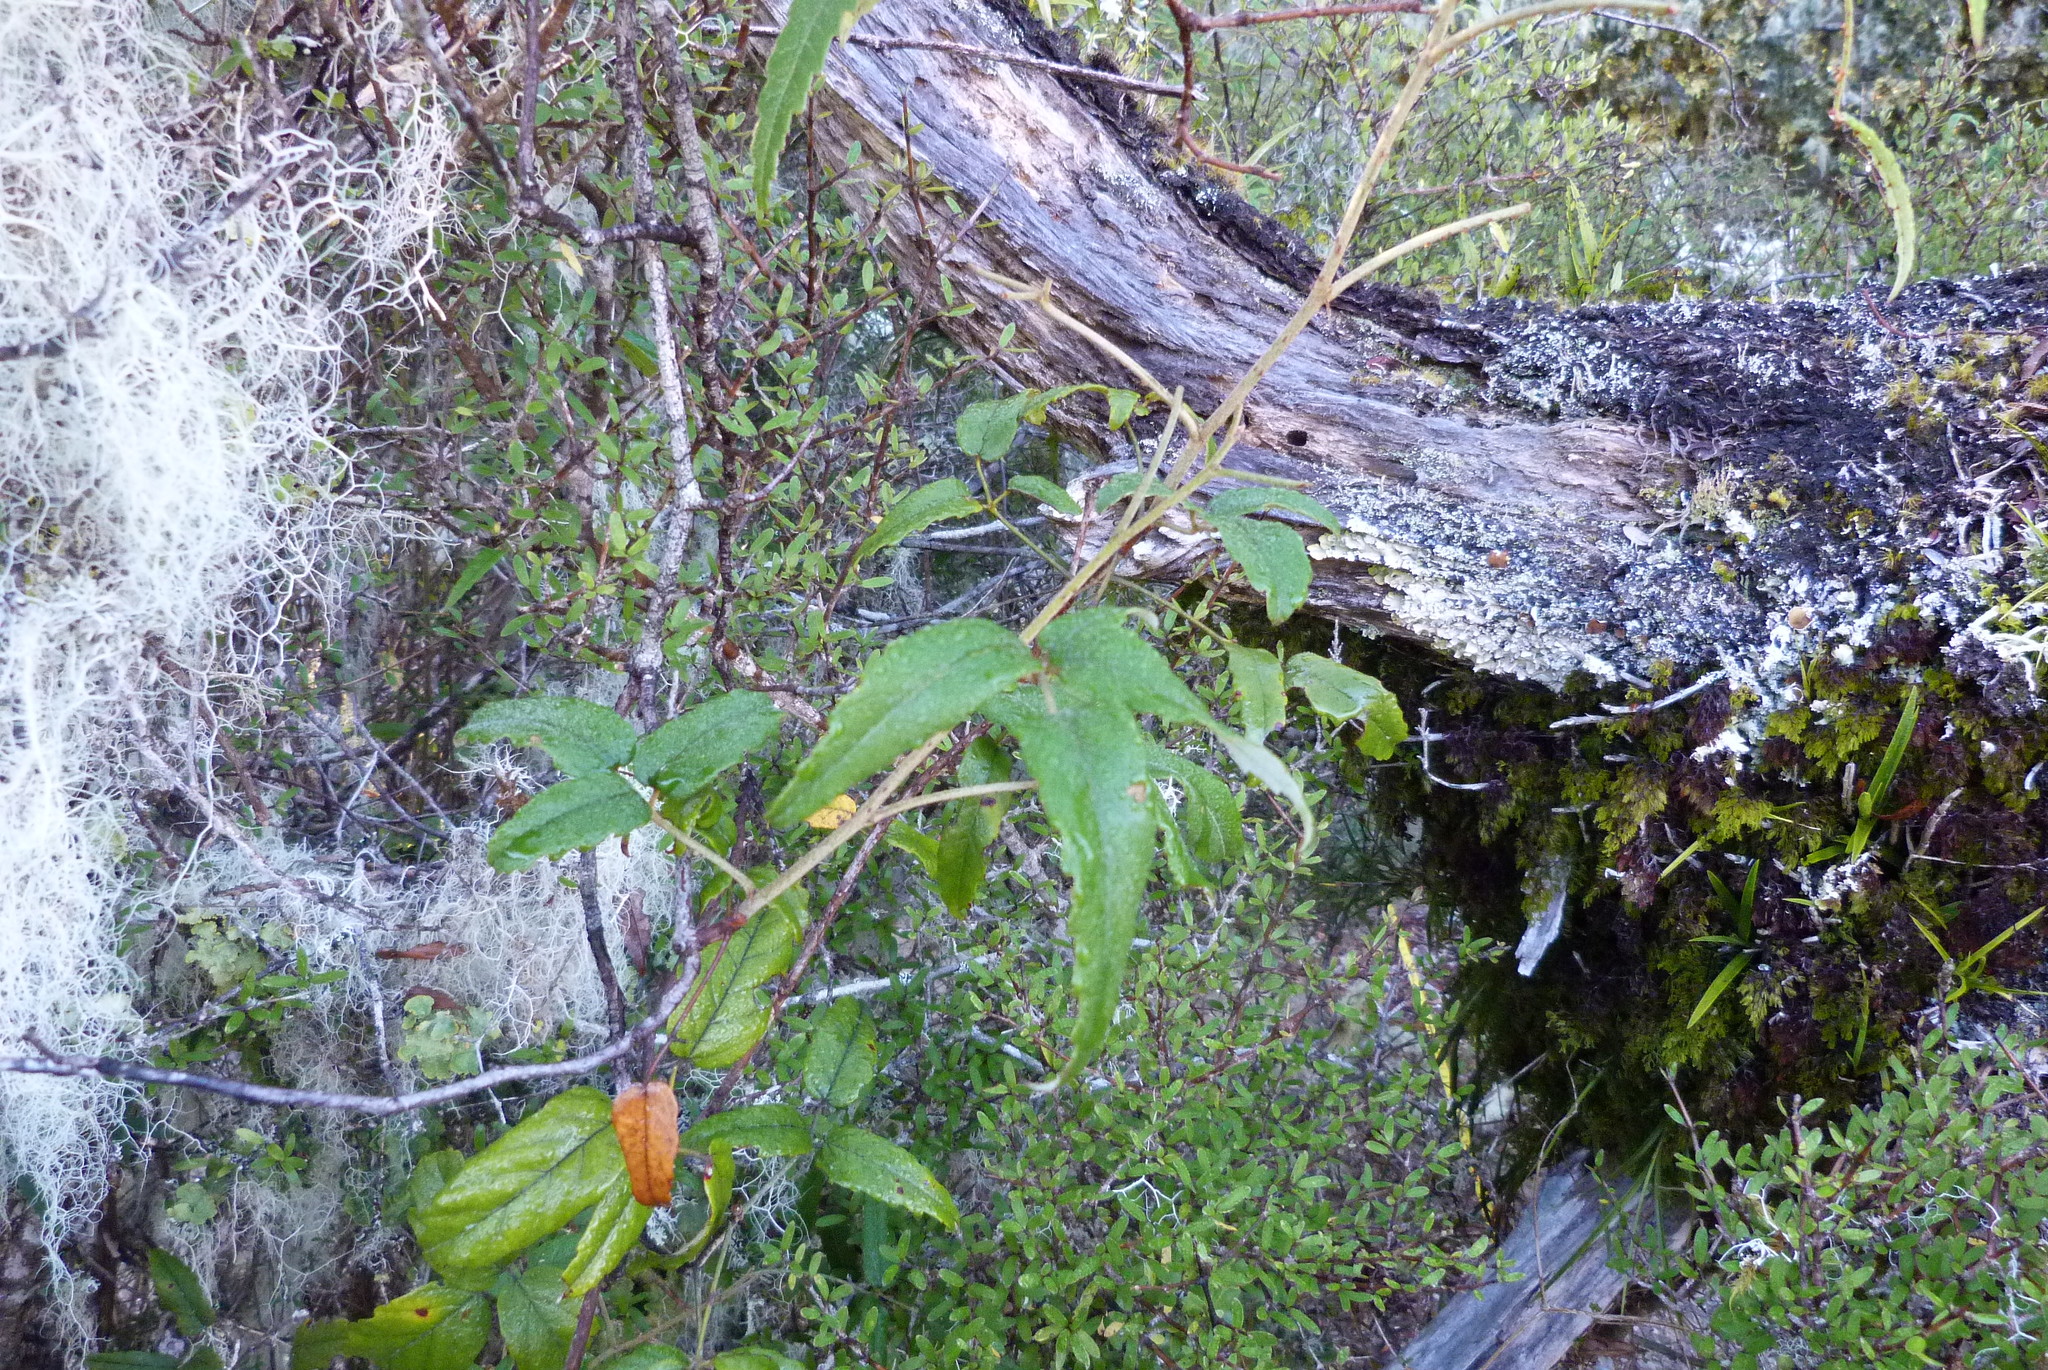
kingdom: Plantae
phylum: Tracheophyta
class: Magnoliopsida
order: Rosales
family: Rosaceae
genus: Rubus
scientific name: Rubus schmidelioides
